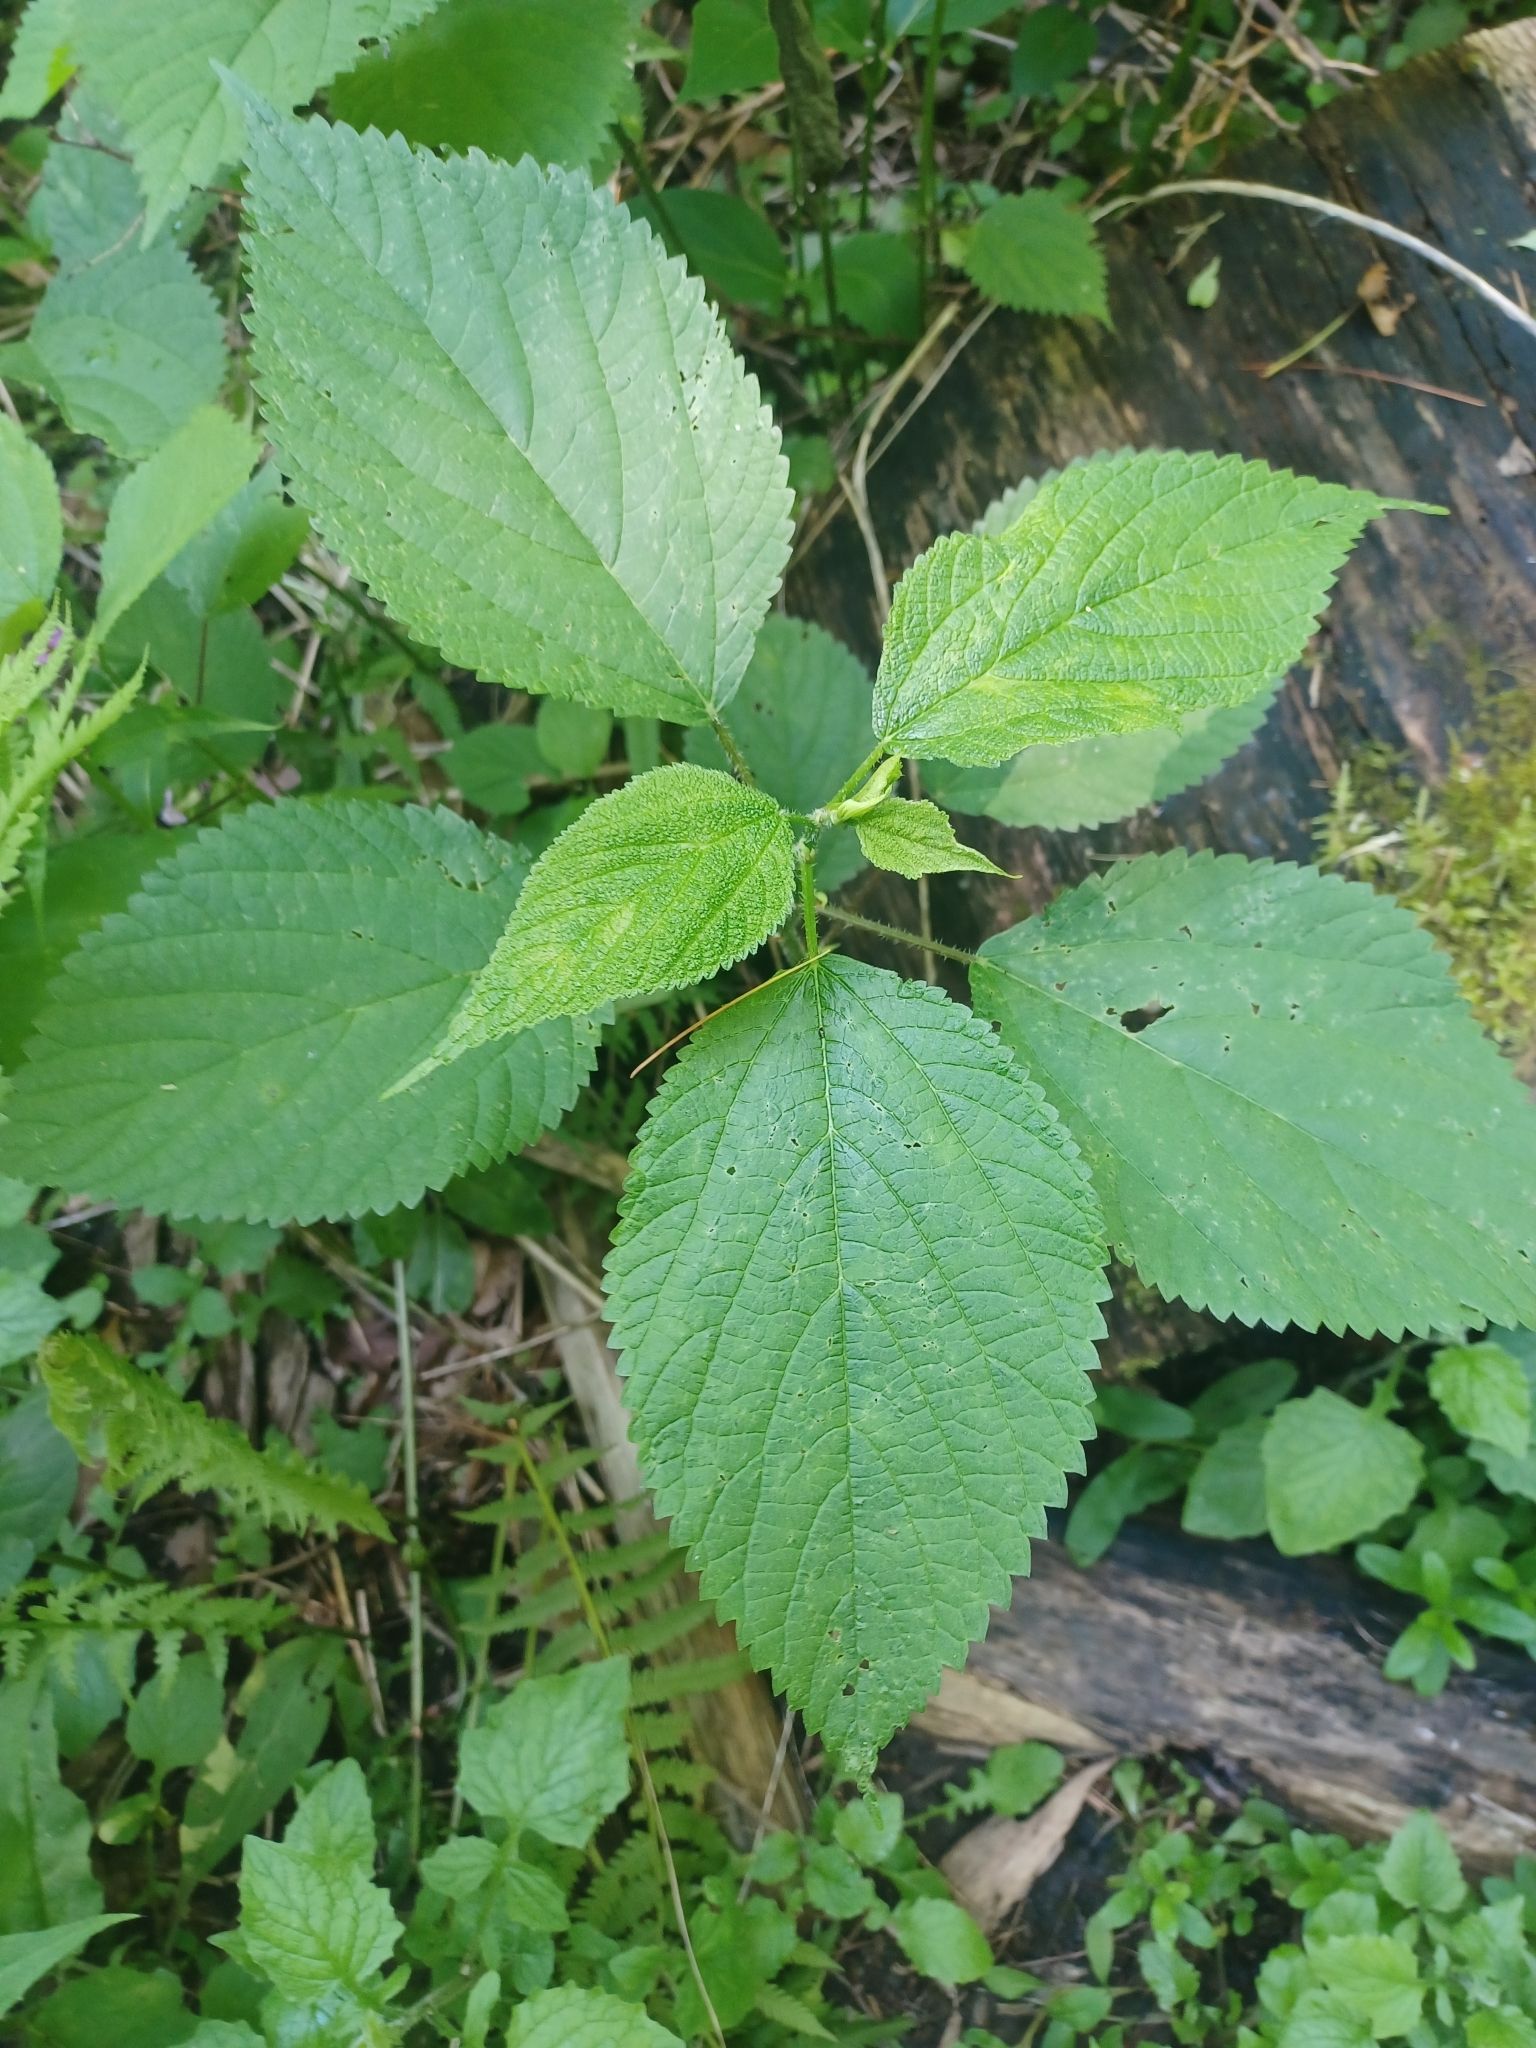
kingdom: Plantae
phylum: Tracheophyta
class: Magnoliopsida
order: Rosales
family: Urticaceae
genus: Laportea
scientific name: Laportea canadensis
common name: Canada nettle
